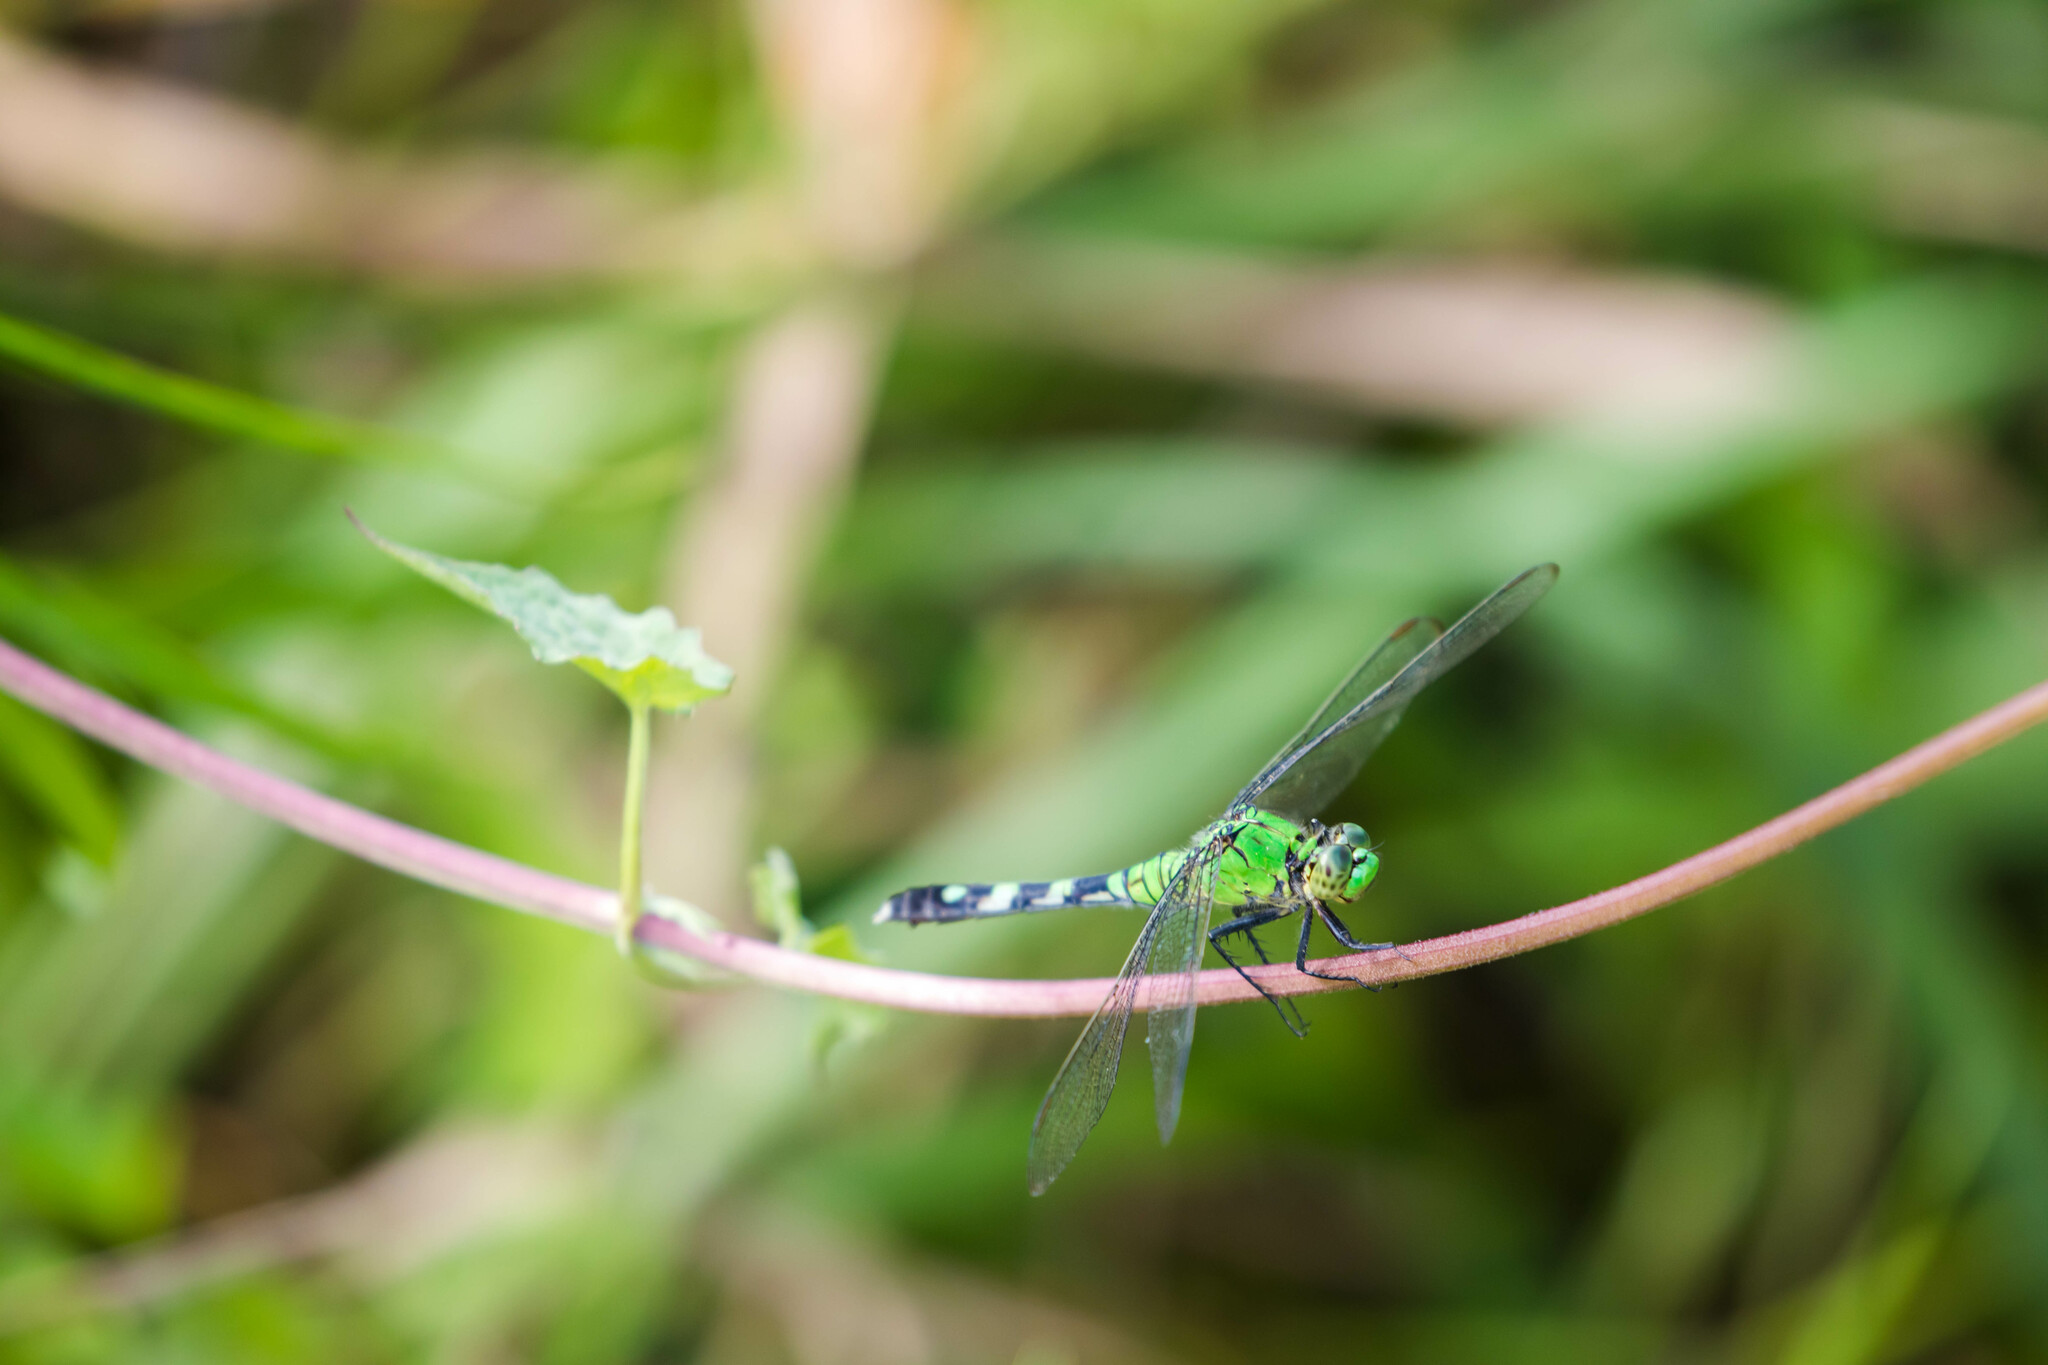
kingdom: Animalia
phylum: Arthropoda
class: Insecta
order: Odonata
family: Libellulidae
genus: Erythemis
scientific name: Erythemis simplicicollis
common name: Eastern pondhawk
